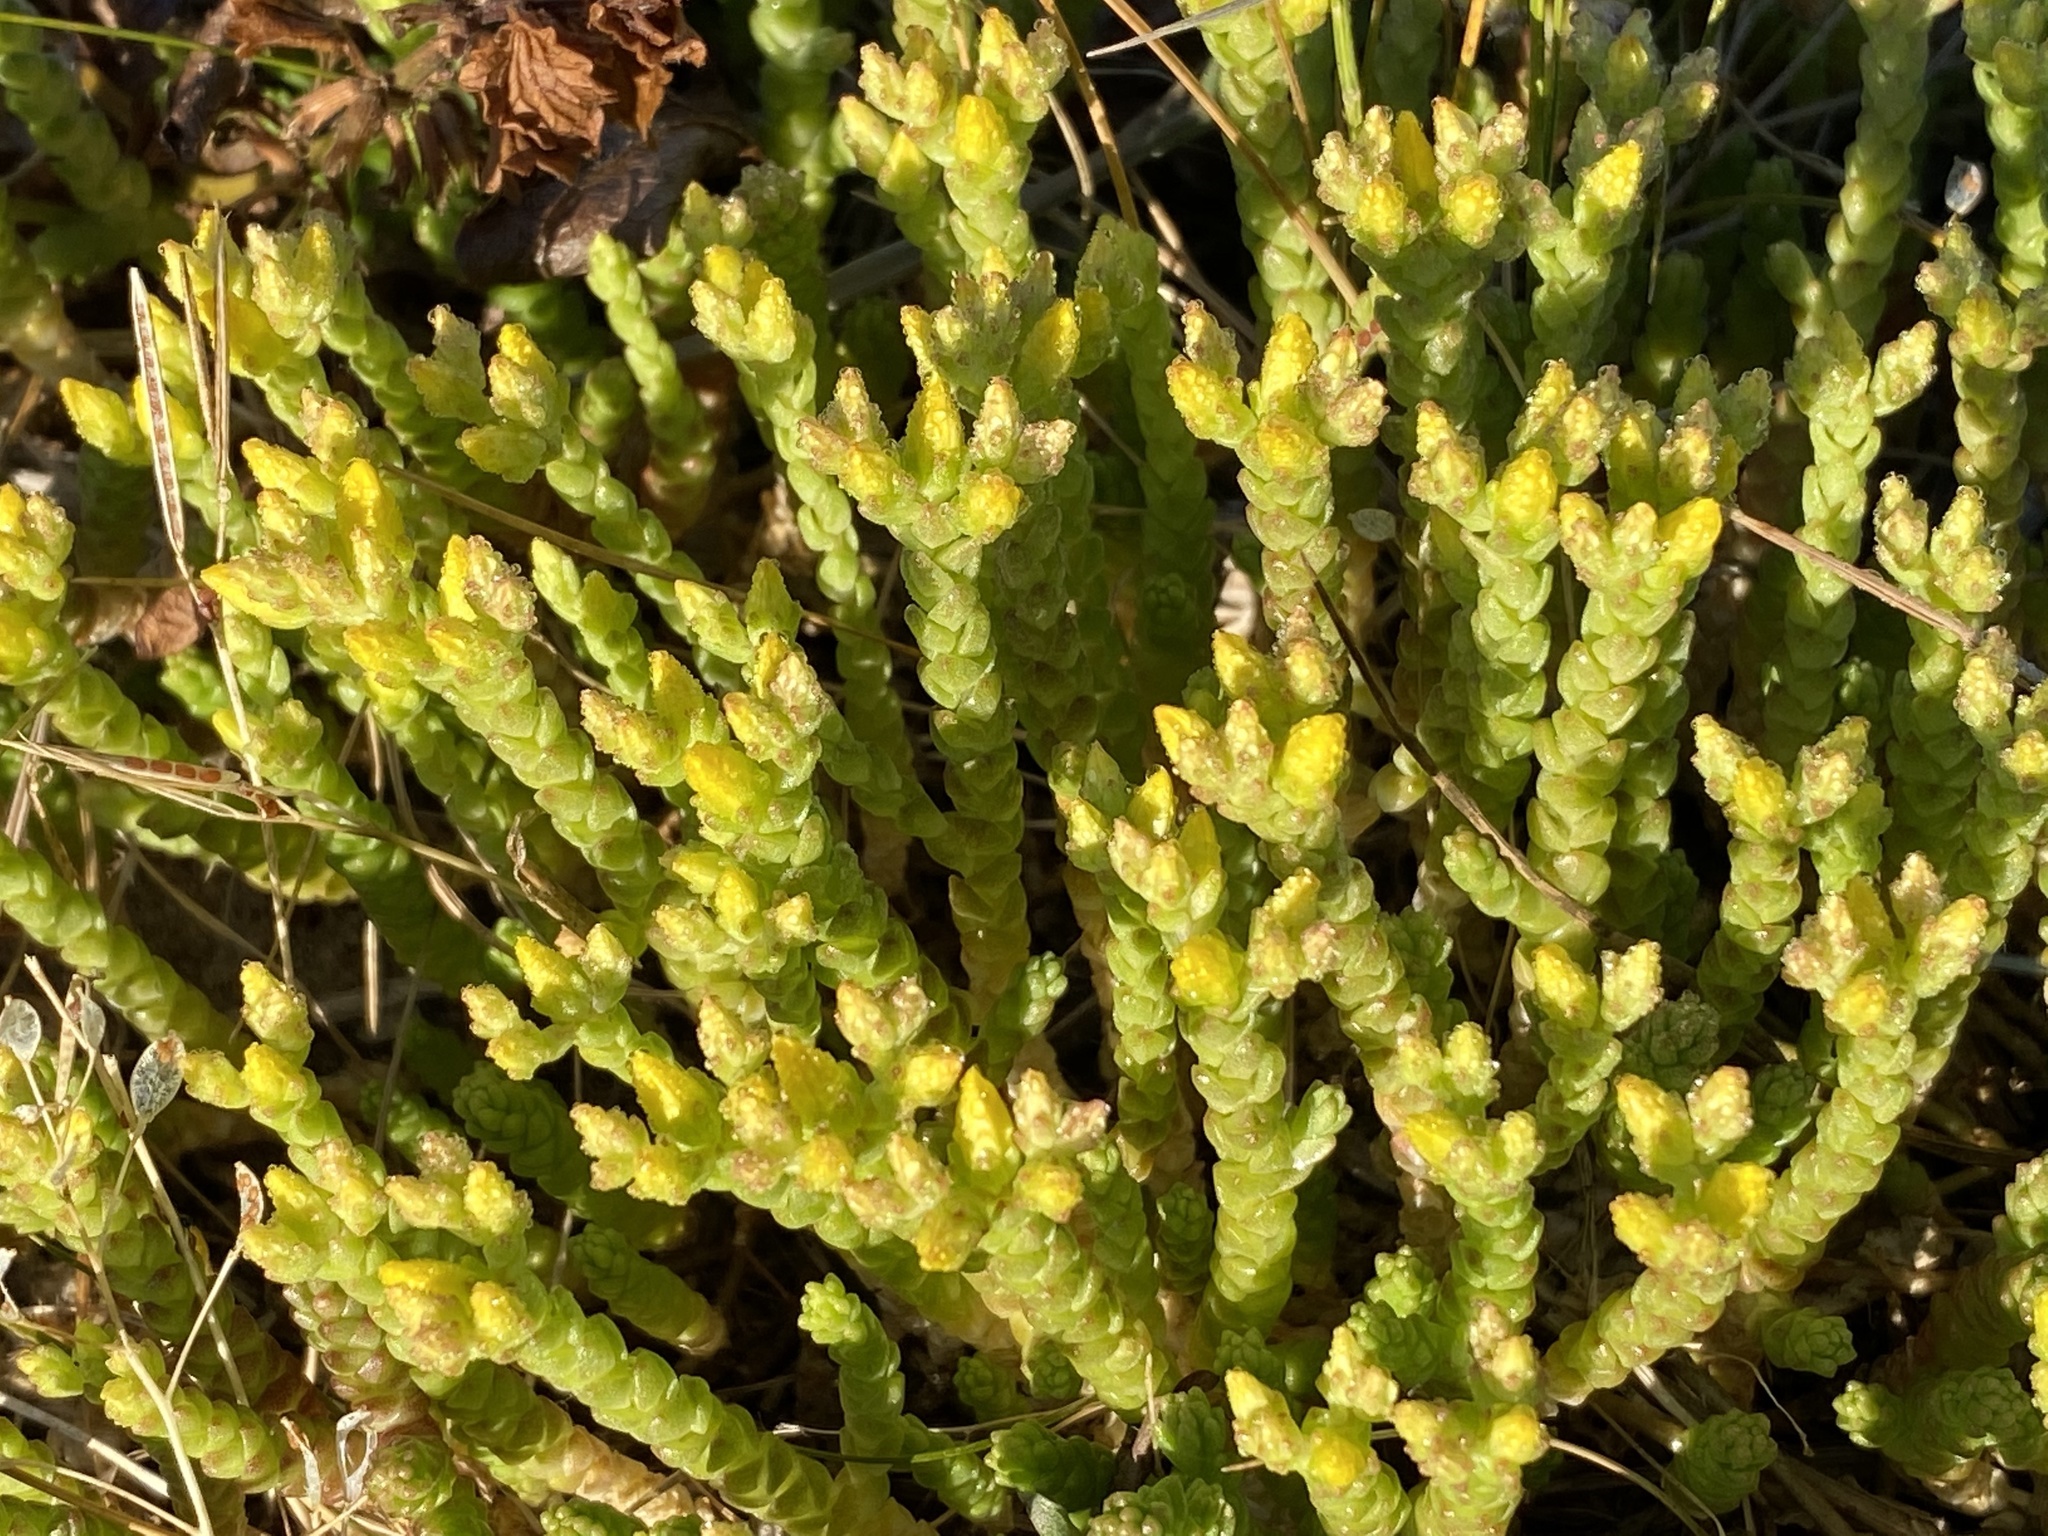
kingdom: Plantae
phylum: Tracheophyta
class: Magnoliopsida
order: Saxifragales
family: Crassulaceae
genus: Sedum
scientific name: Sedum acre
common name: Biting stonecrop
